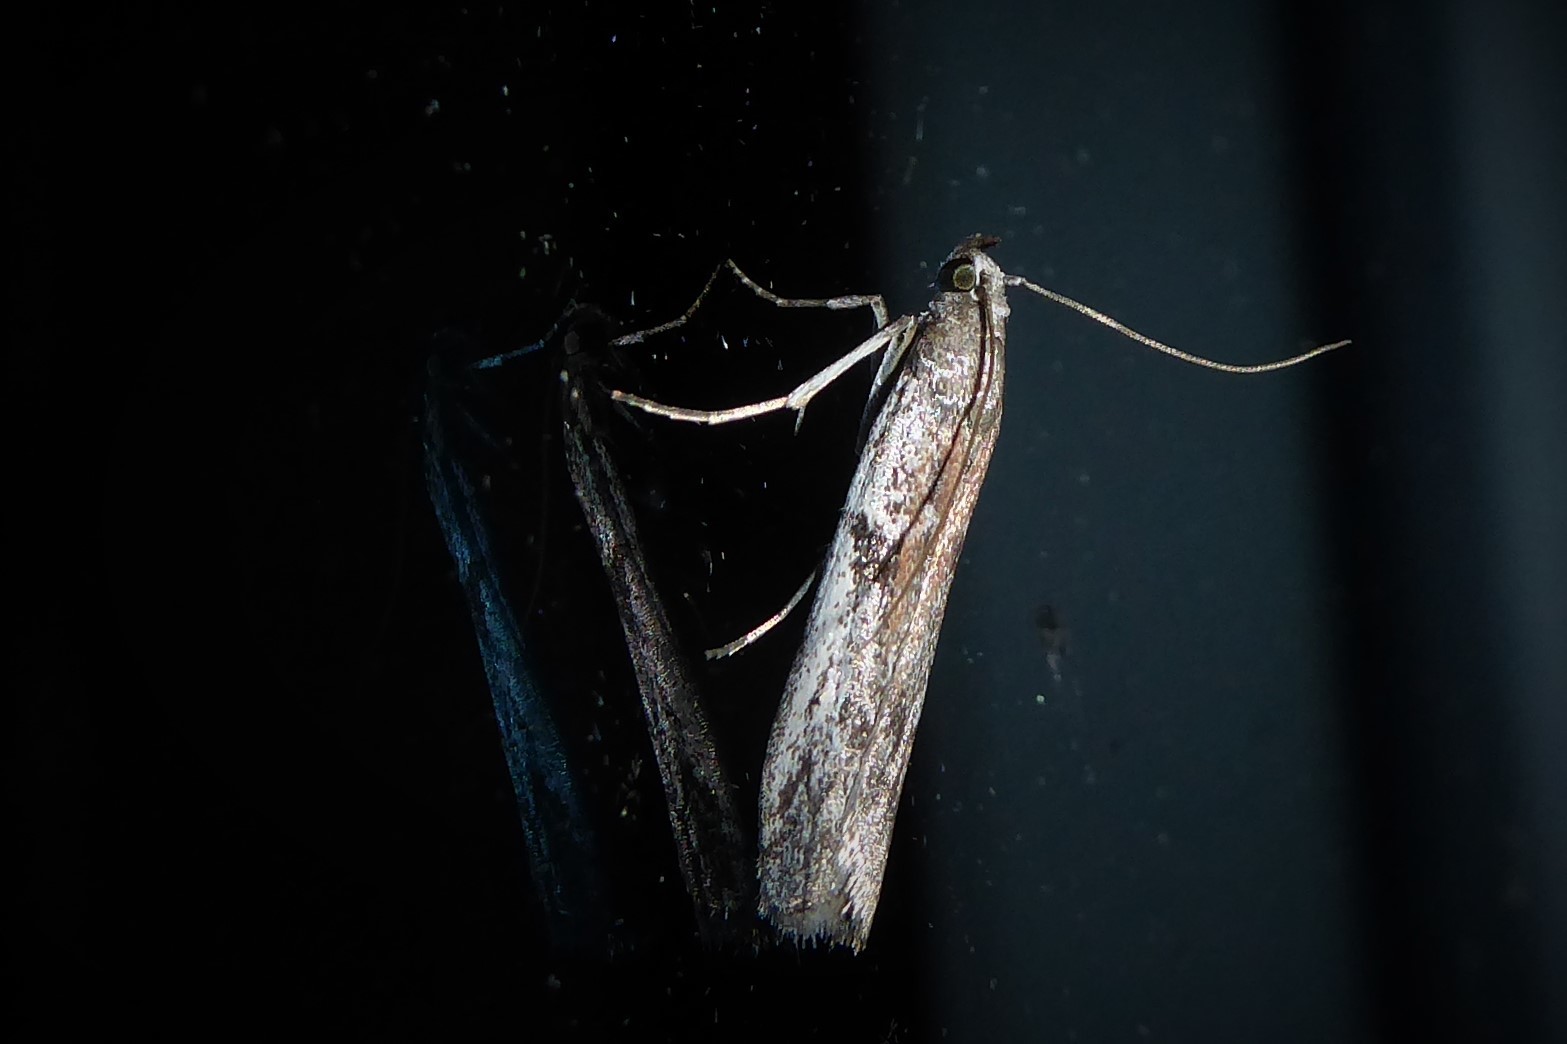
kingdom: Animalia
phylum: Arthropoda
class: Insecta
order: Lepidoptera
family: Pyralidae
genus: Patagoniodes
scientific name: Patagoniodes farinaria
